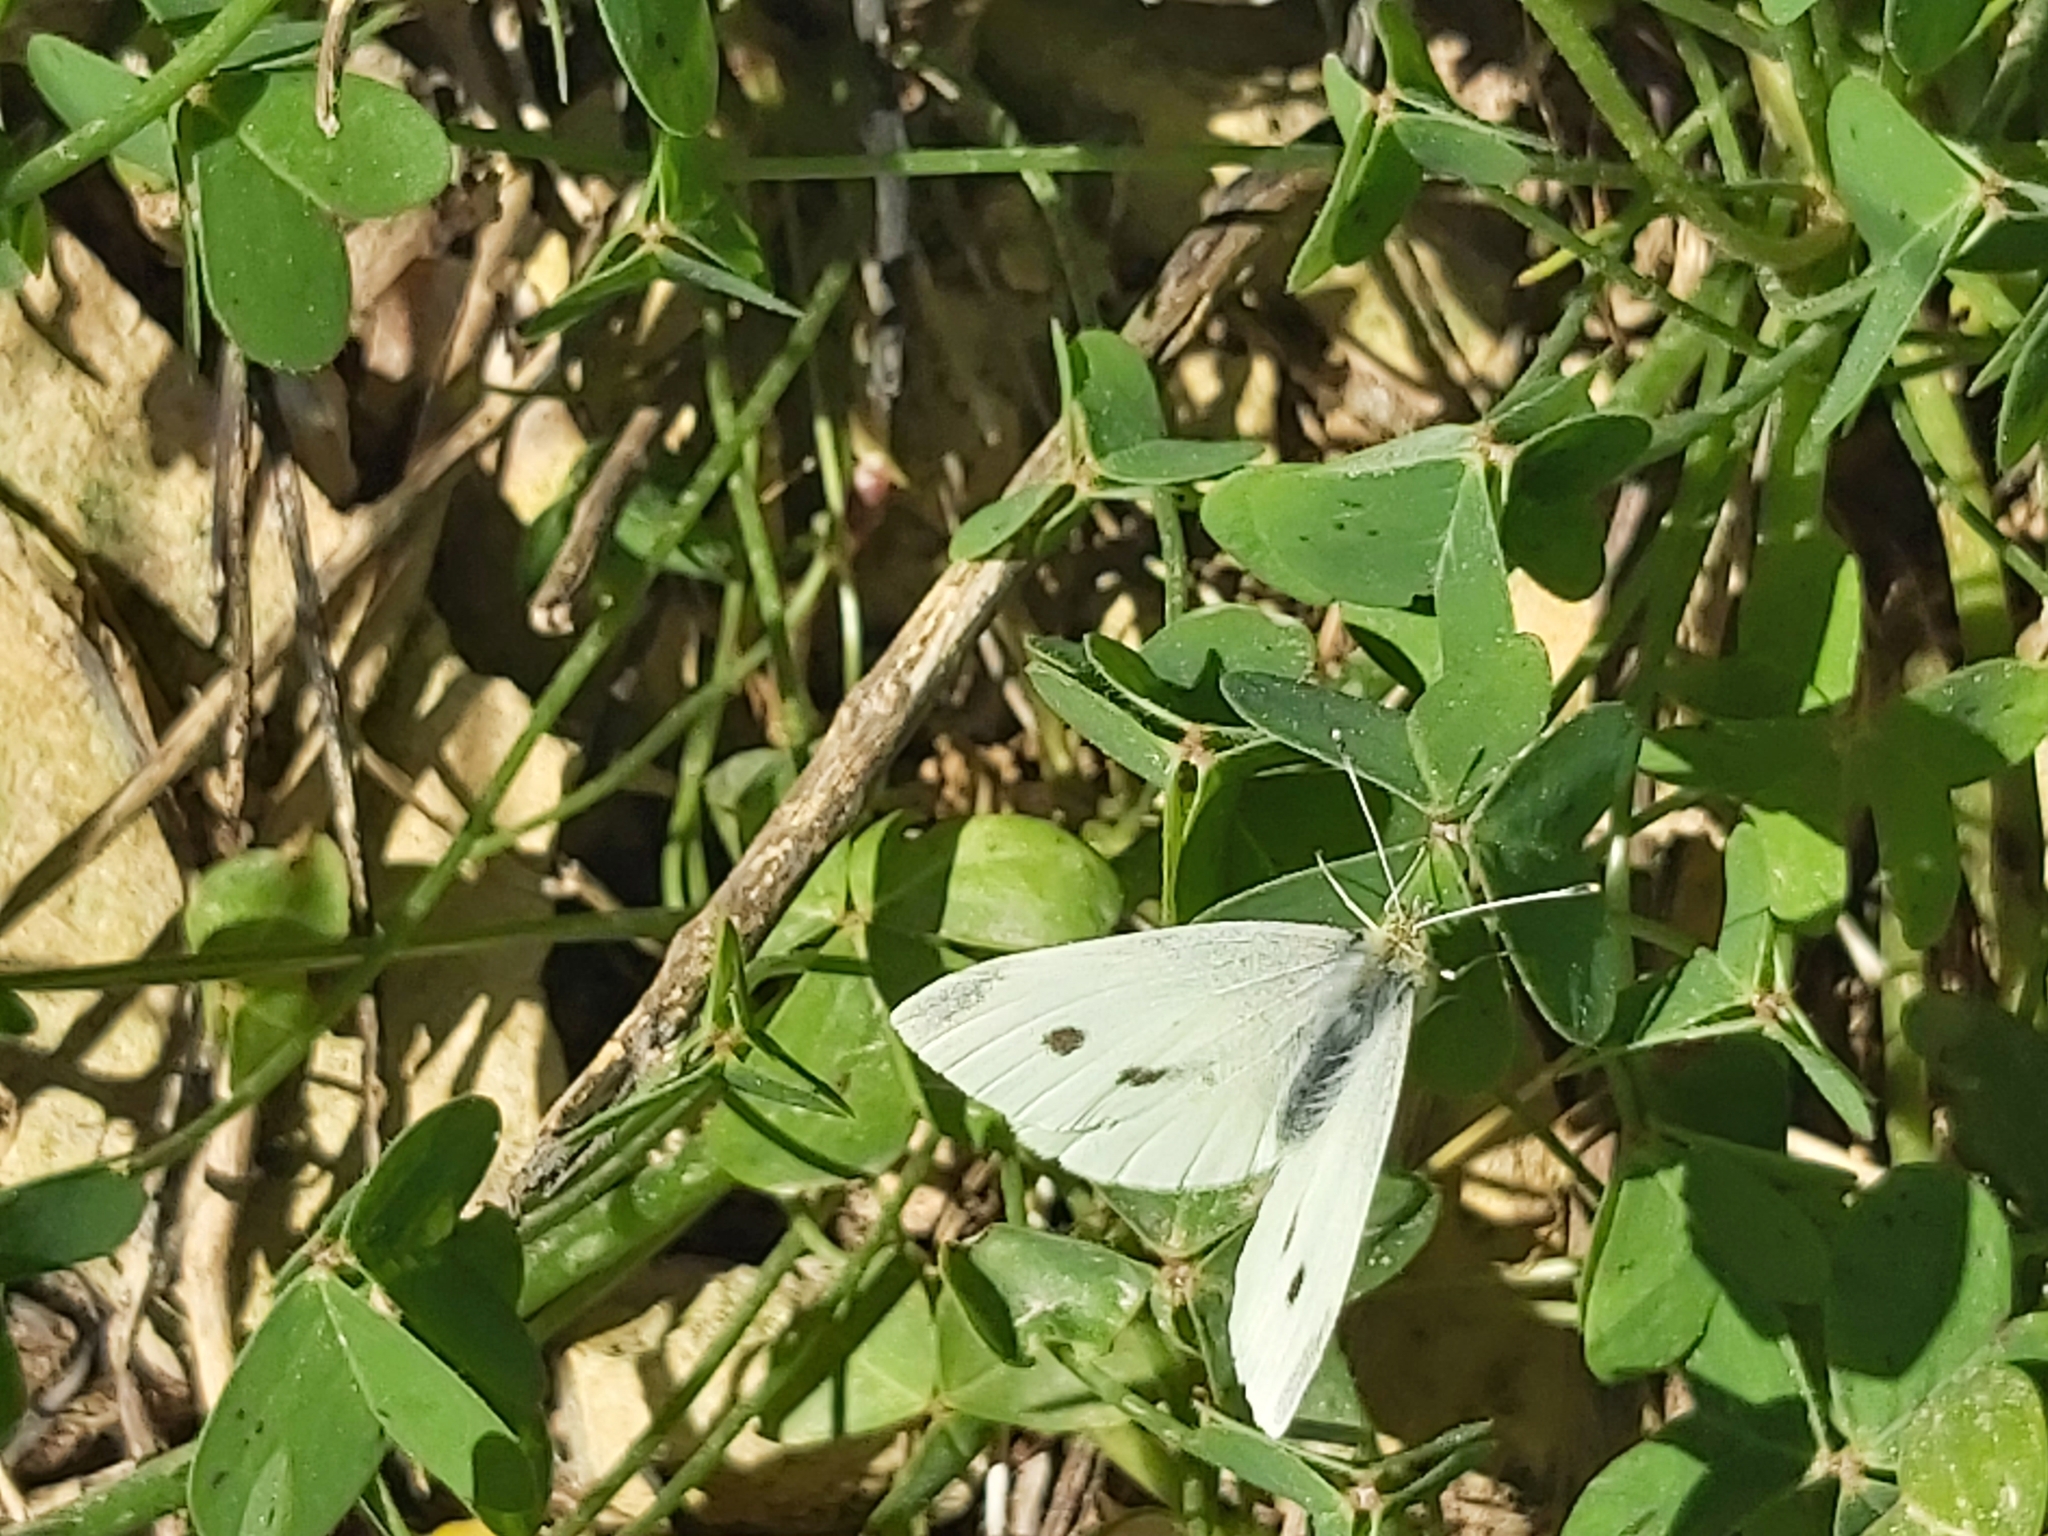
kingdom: Animalia
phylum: Arthropoda
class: Insecta
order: Lepidoptera
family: Pieridae
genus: Pieris
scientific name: Pieris rapae
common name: Small white
